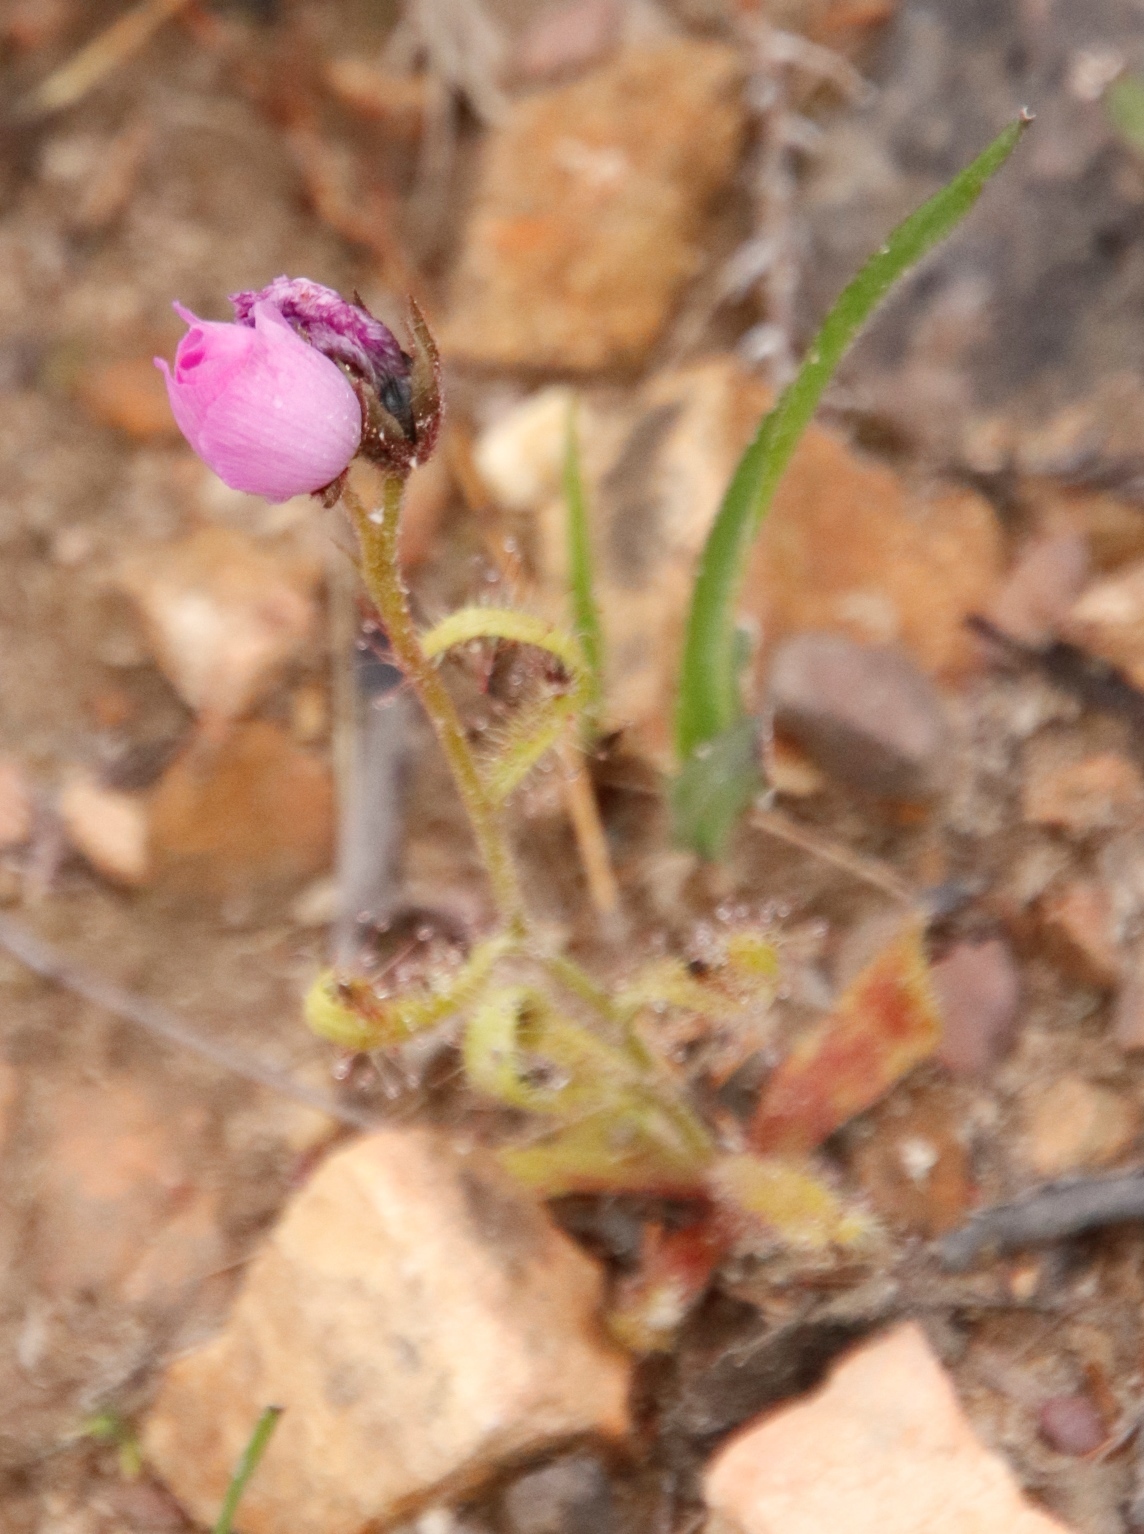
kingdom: Plantae
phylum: Tracheophyta
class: Magnoliopsida
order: Caryophyllales
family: Droseraceae
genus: Drosera
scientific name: Drosera cistiflora
